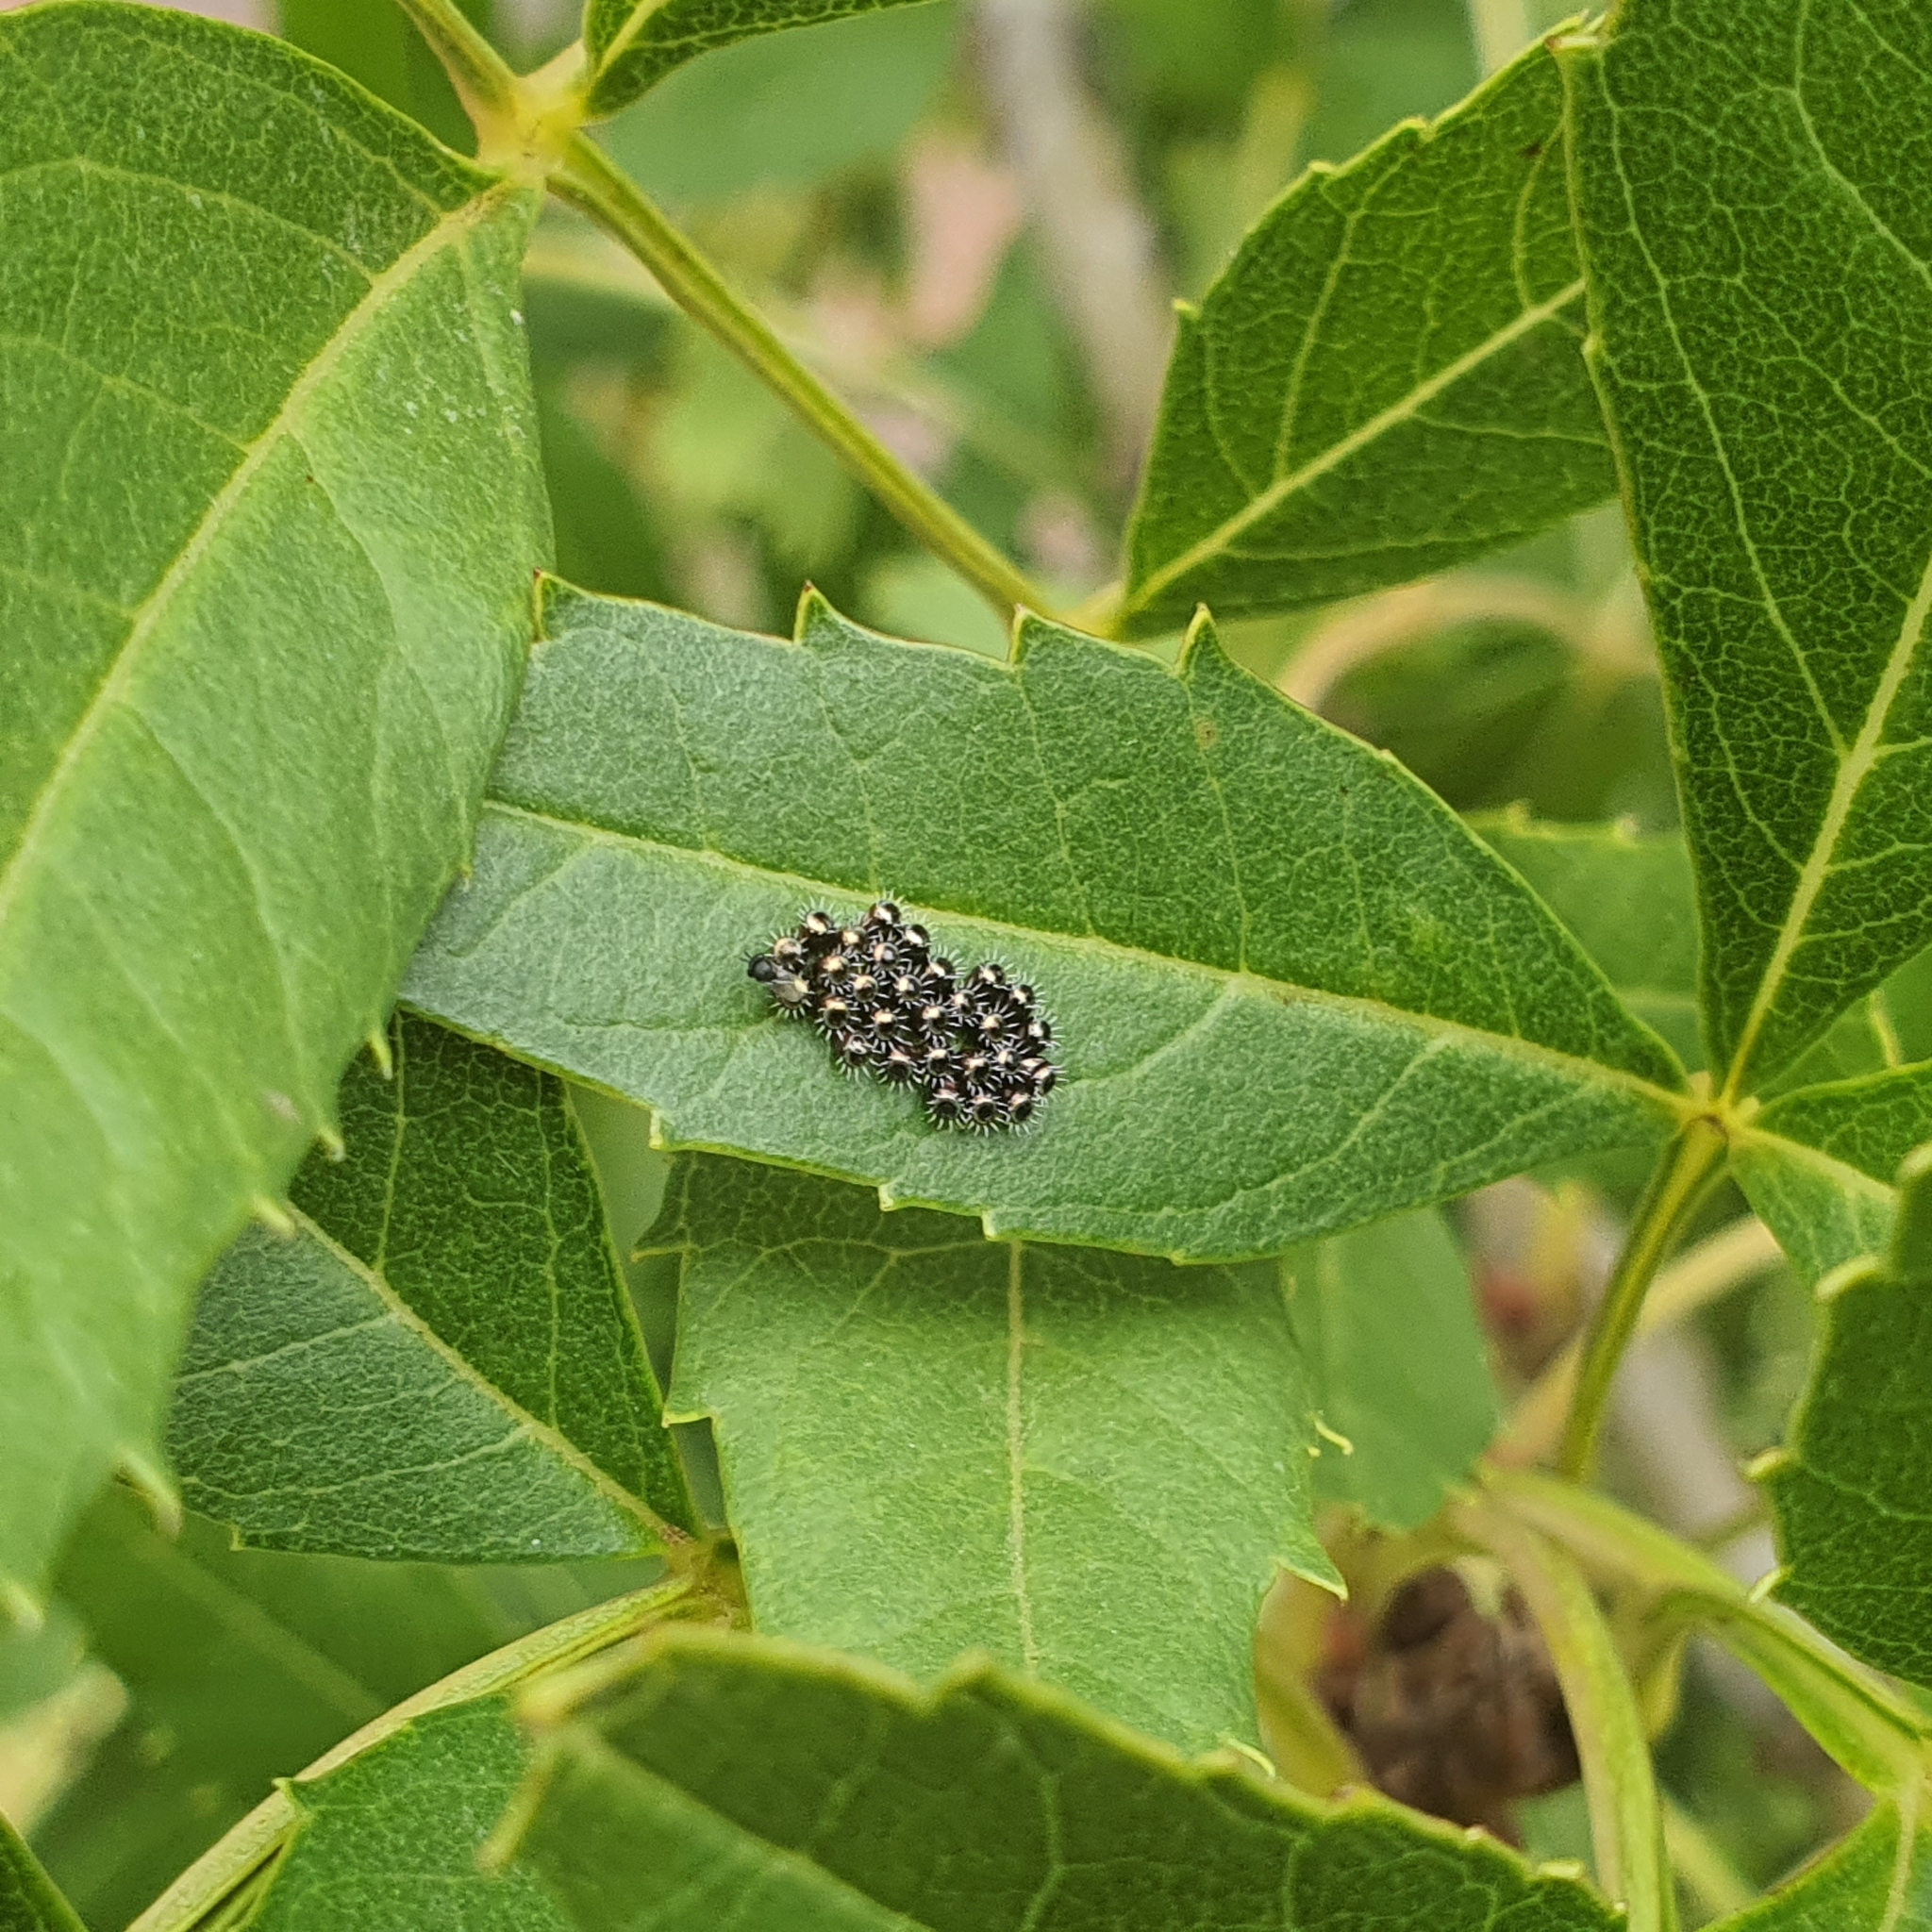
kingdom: Animalia
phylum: Arthropoda
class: Insecta
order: Hemiptera
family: Pentatomidae
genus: Oechalia
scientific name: Oechalia schellenbergii
